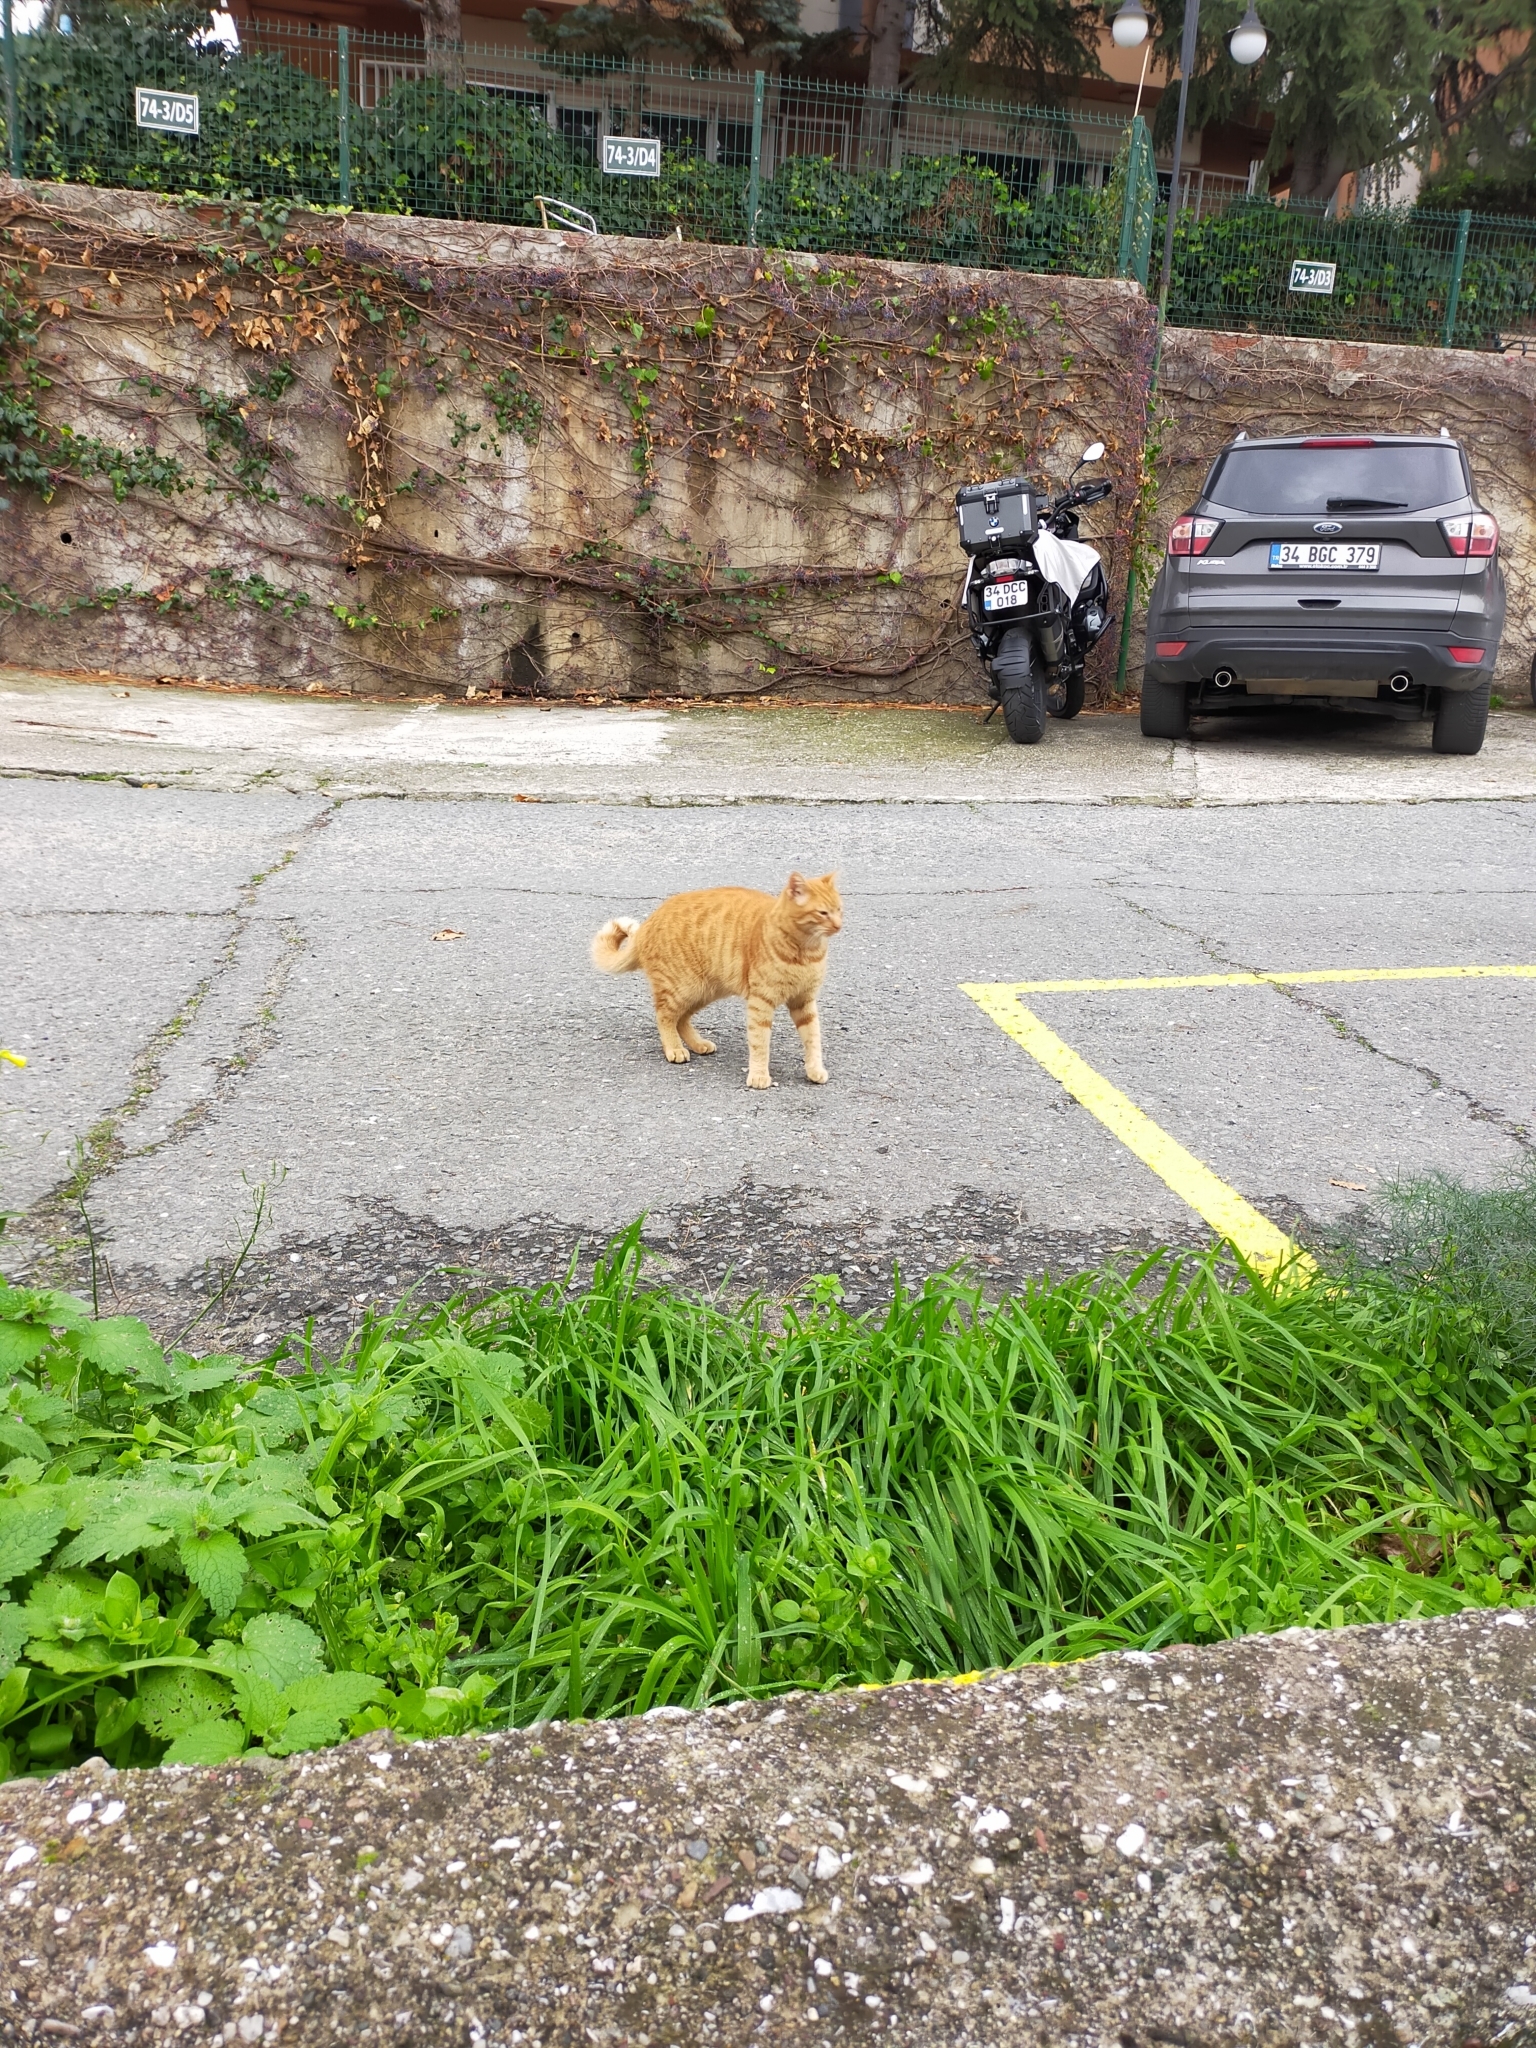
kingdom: Animalia
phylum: Chordata
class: Mammalia
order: Carnivora
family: Felidae
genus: Felis
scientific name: Felis catus
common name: Domestic cat
